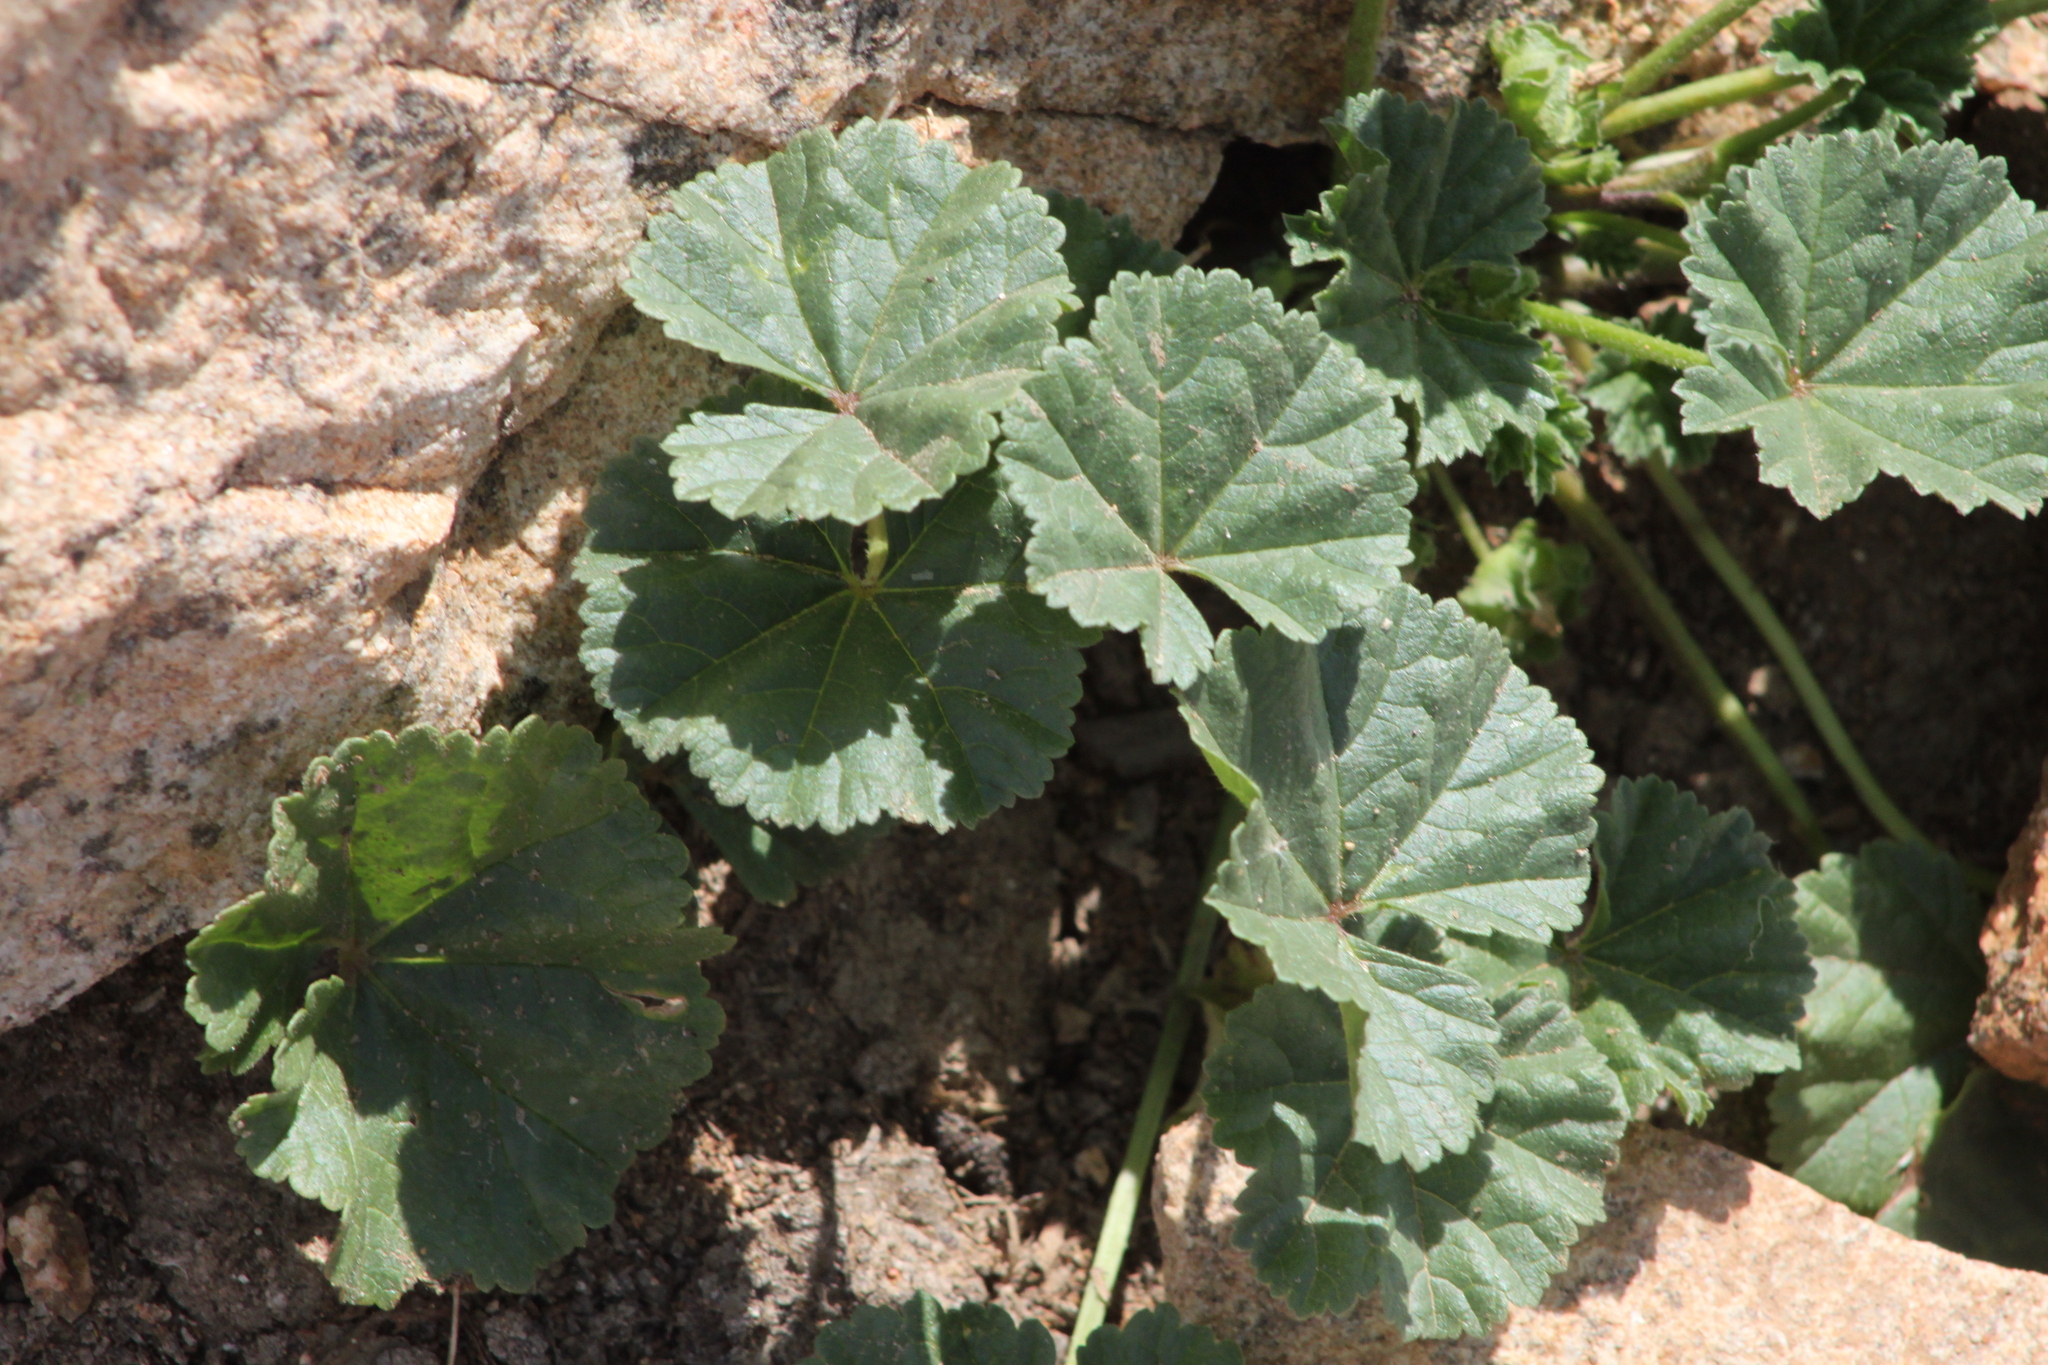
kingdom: Plantae
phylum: Tracheophyta
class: Magnoliopsida
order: Malvales
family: Malvaceae
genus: Malva
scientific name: Malva neglecta
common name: Common mallow
